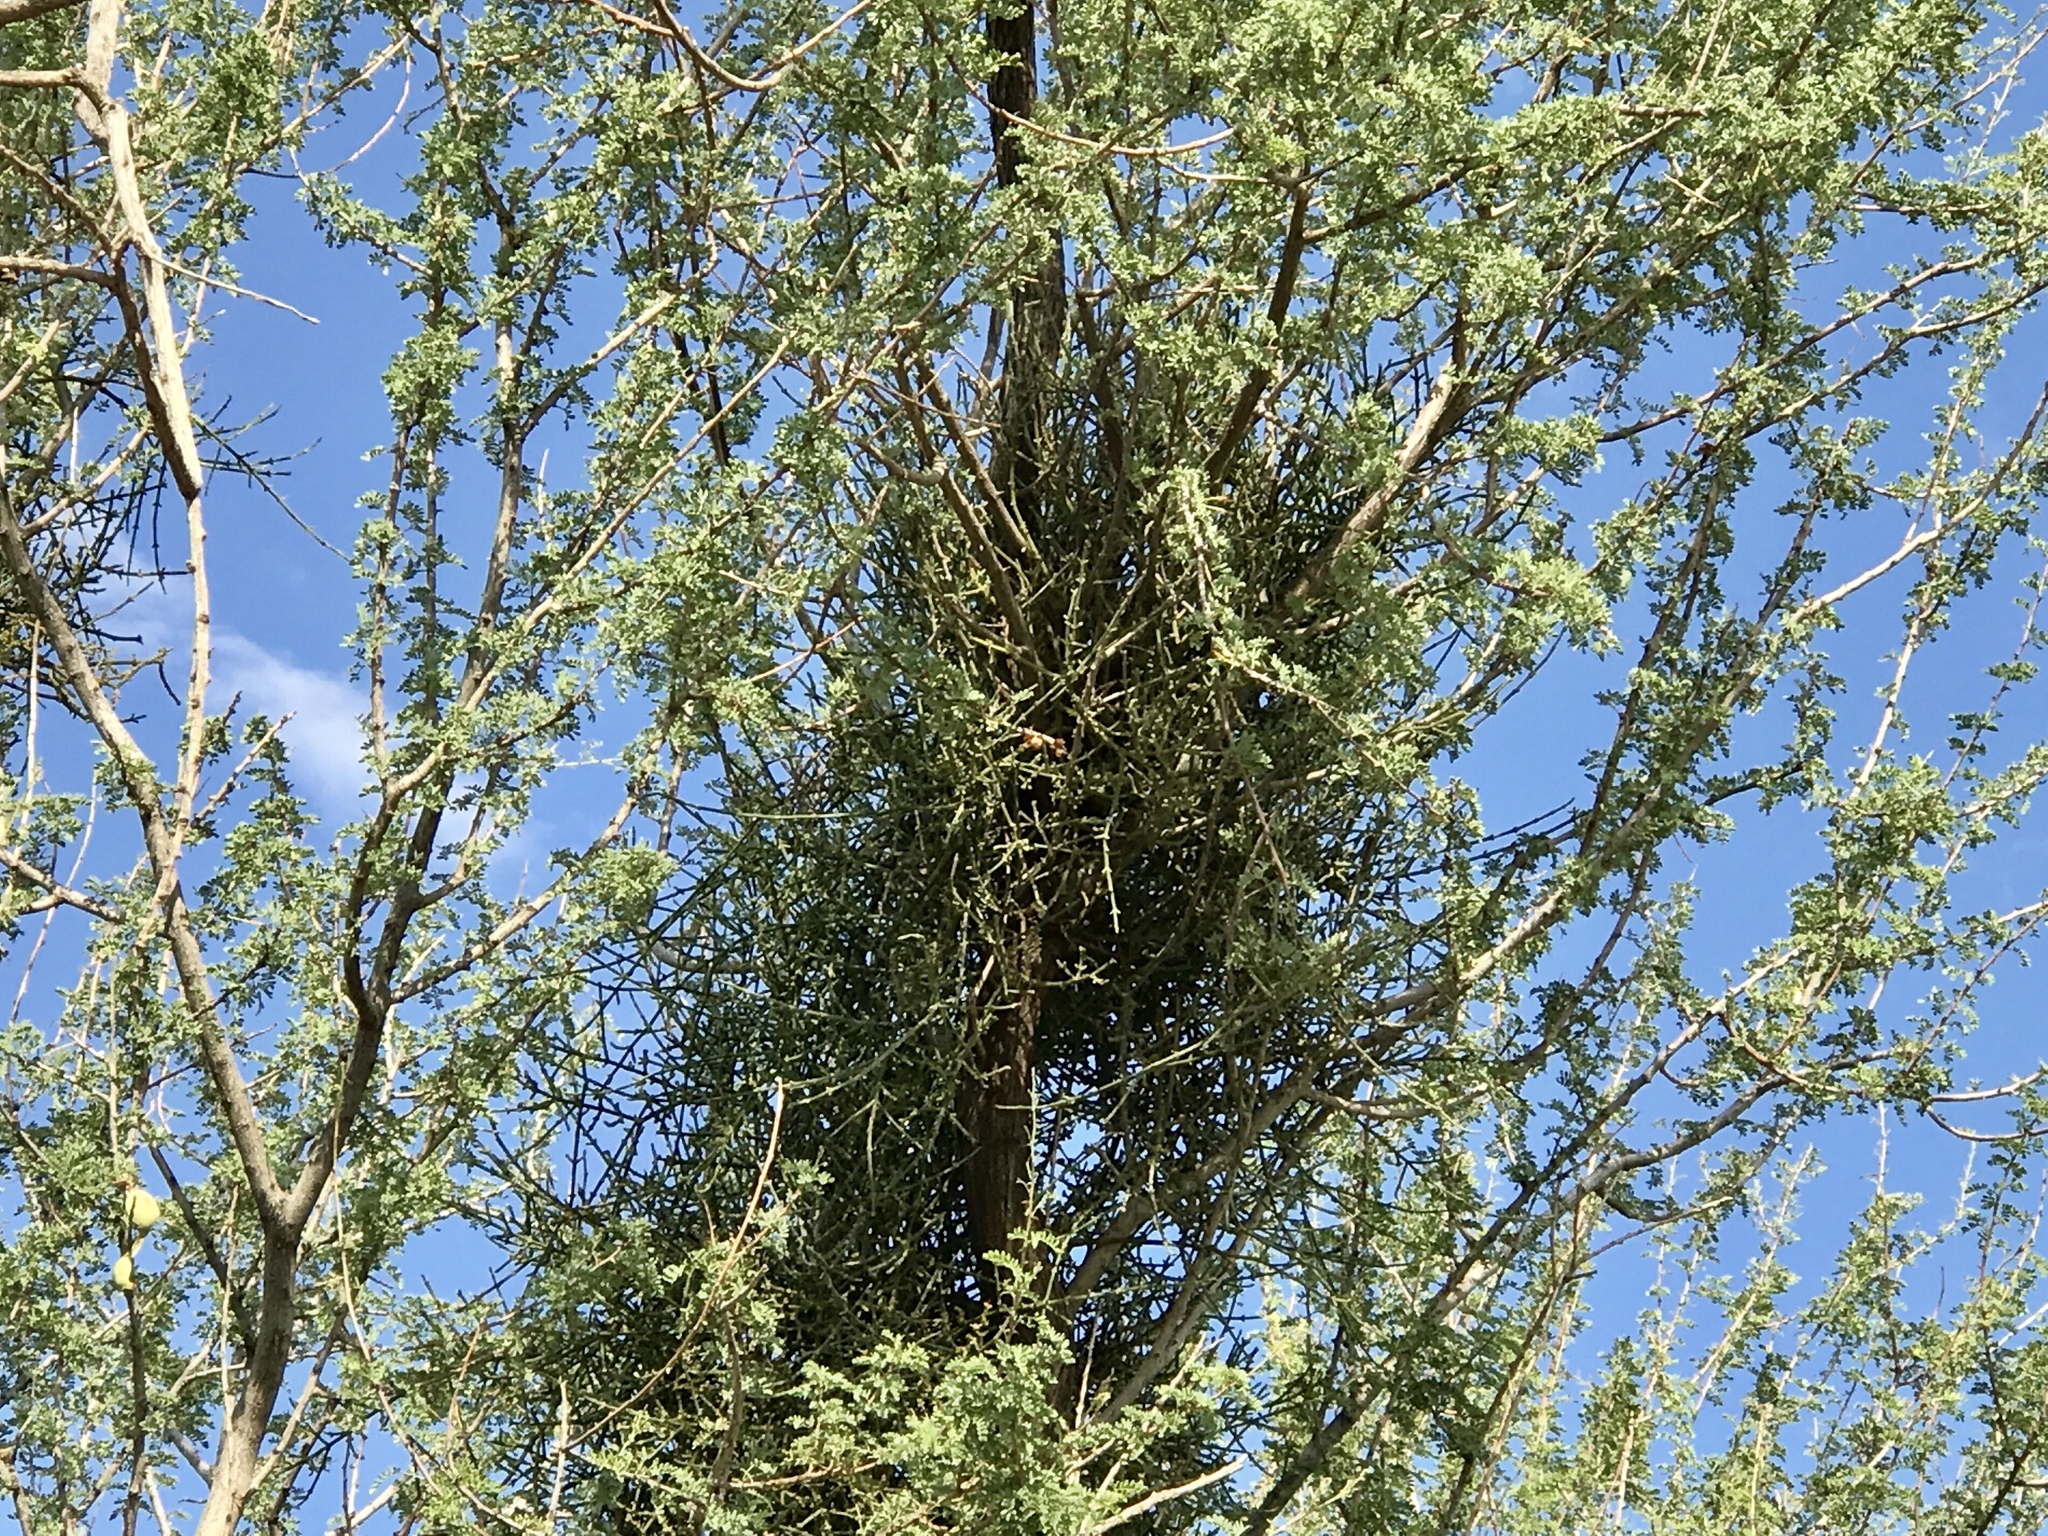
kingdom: Plantae
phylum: Tracheophyta
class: Magnoliopsida
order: Santalales
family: Viscaceae
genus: Phoradendron
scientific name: Phoradendron californicum
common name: Acacia mistletoe
